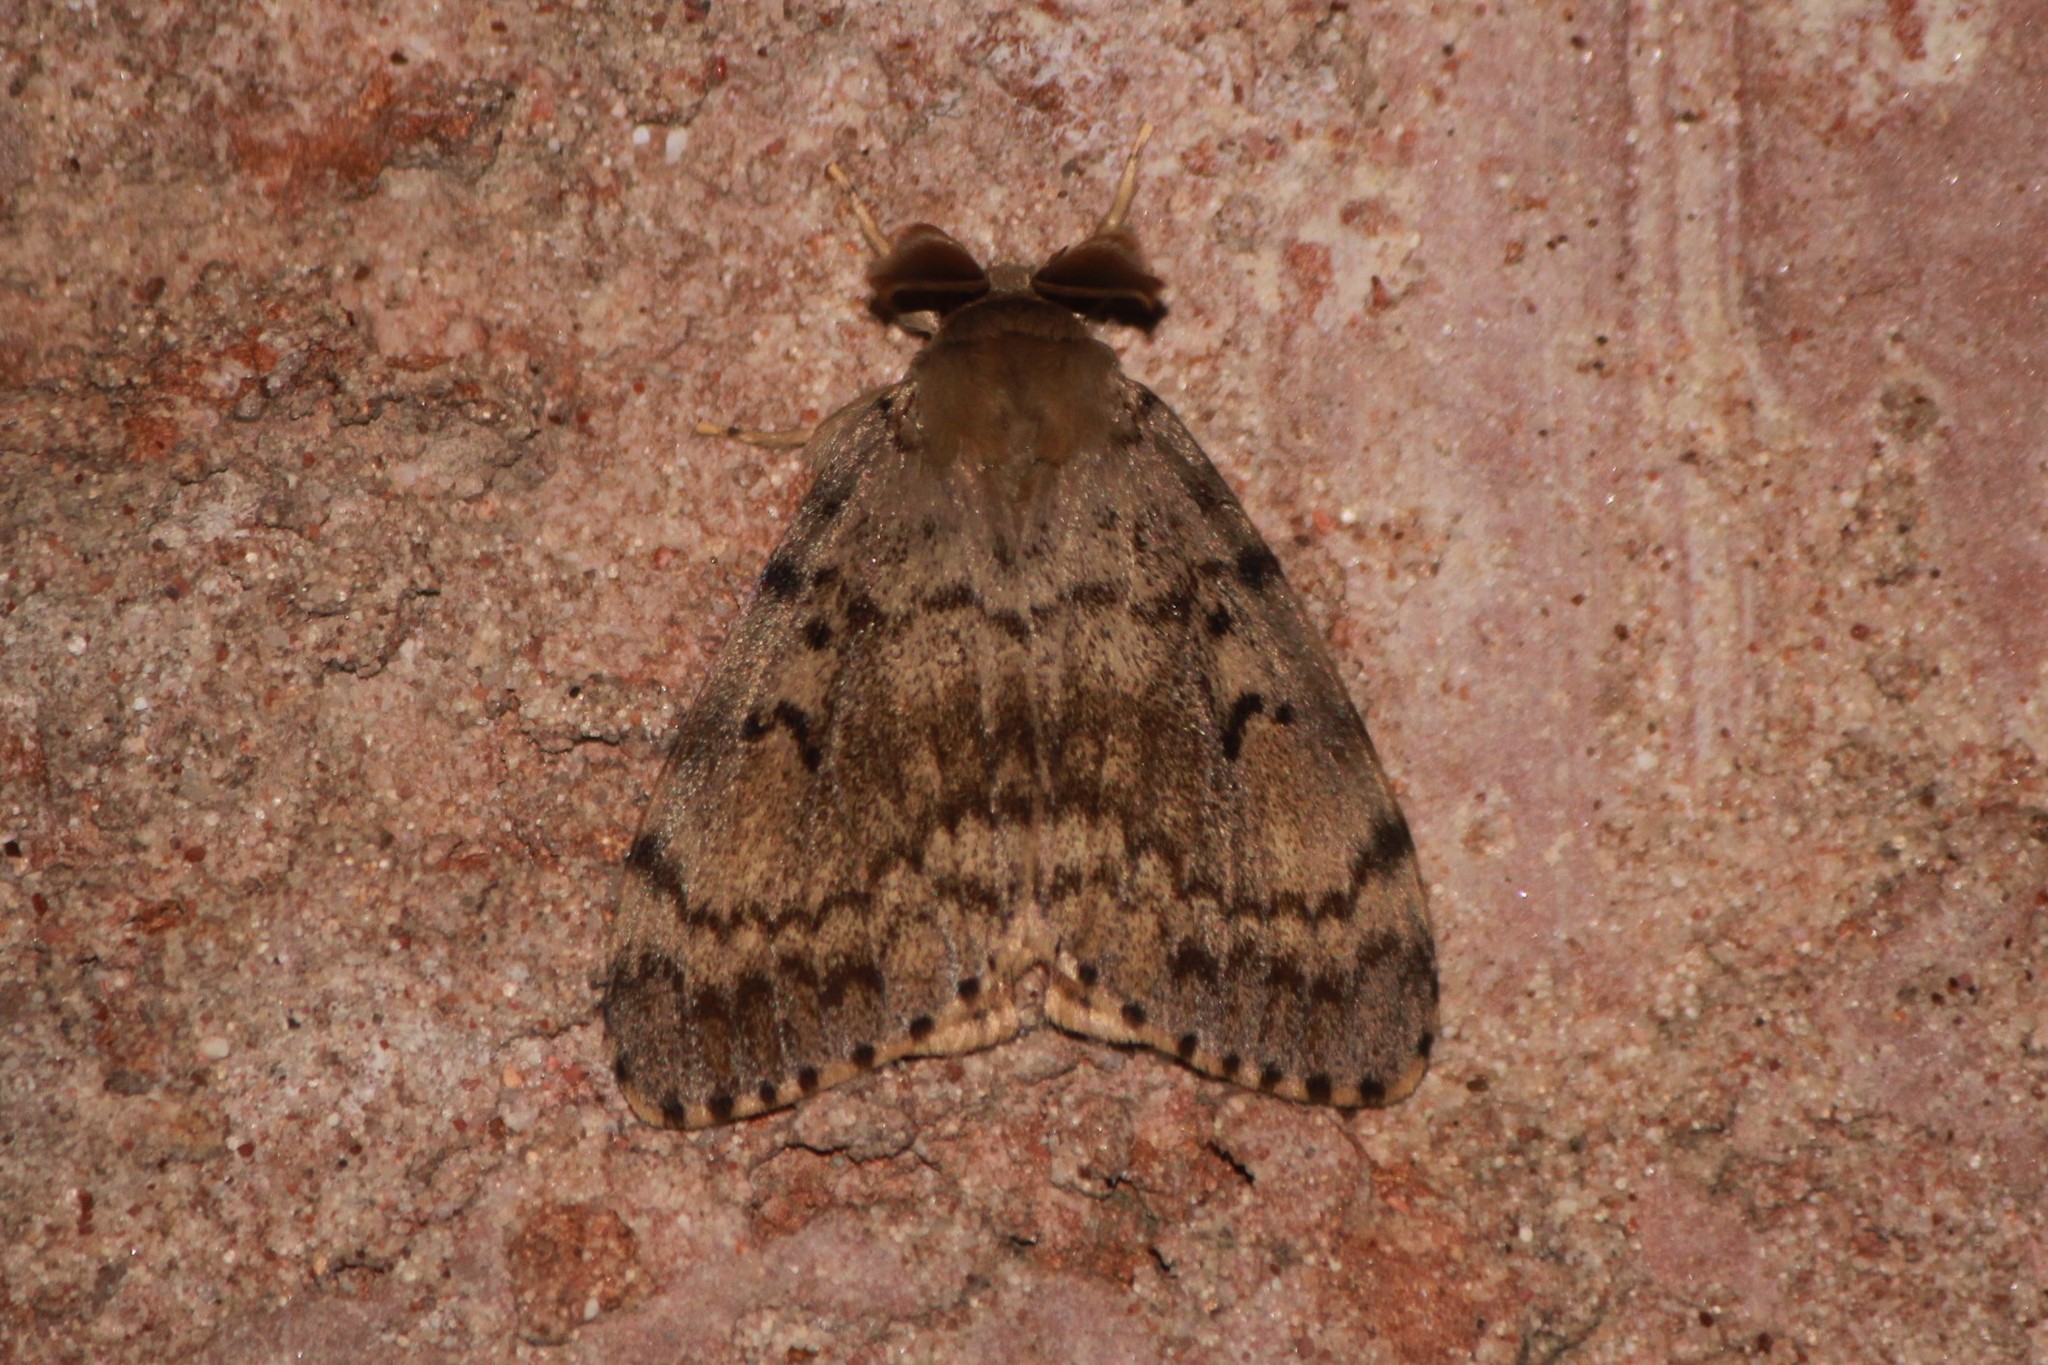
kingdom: Animalia
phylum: Arthropoda
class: Insecta
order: Lepidoptera
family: Erebidae
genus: Lymantria
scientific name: Lymantria dispar
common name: Gypsy moth
